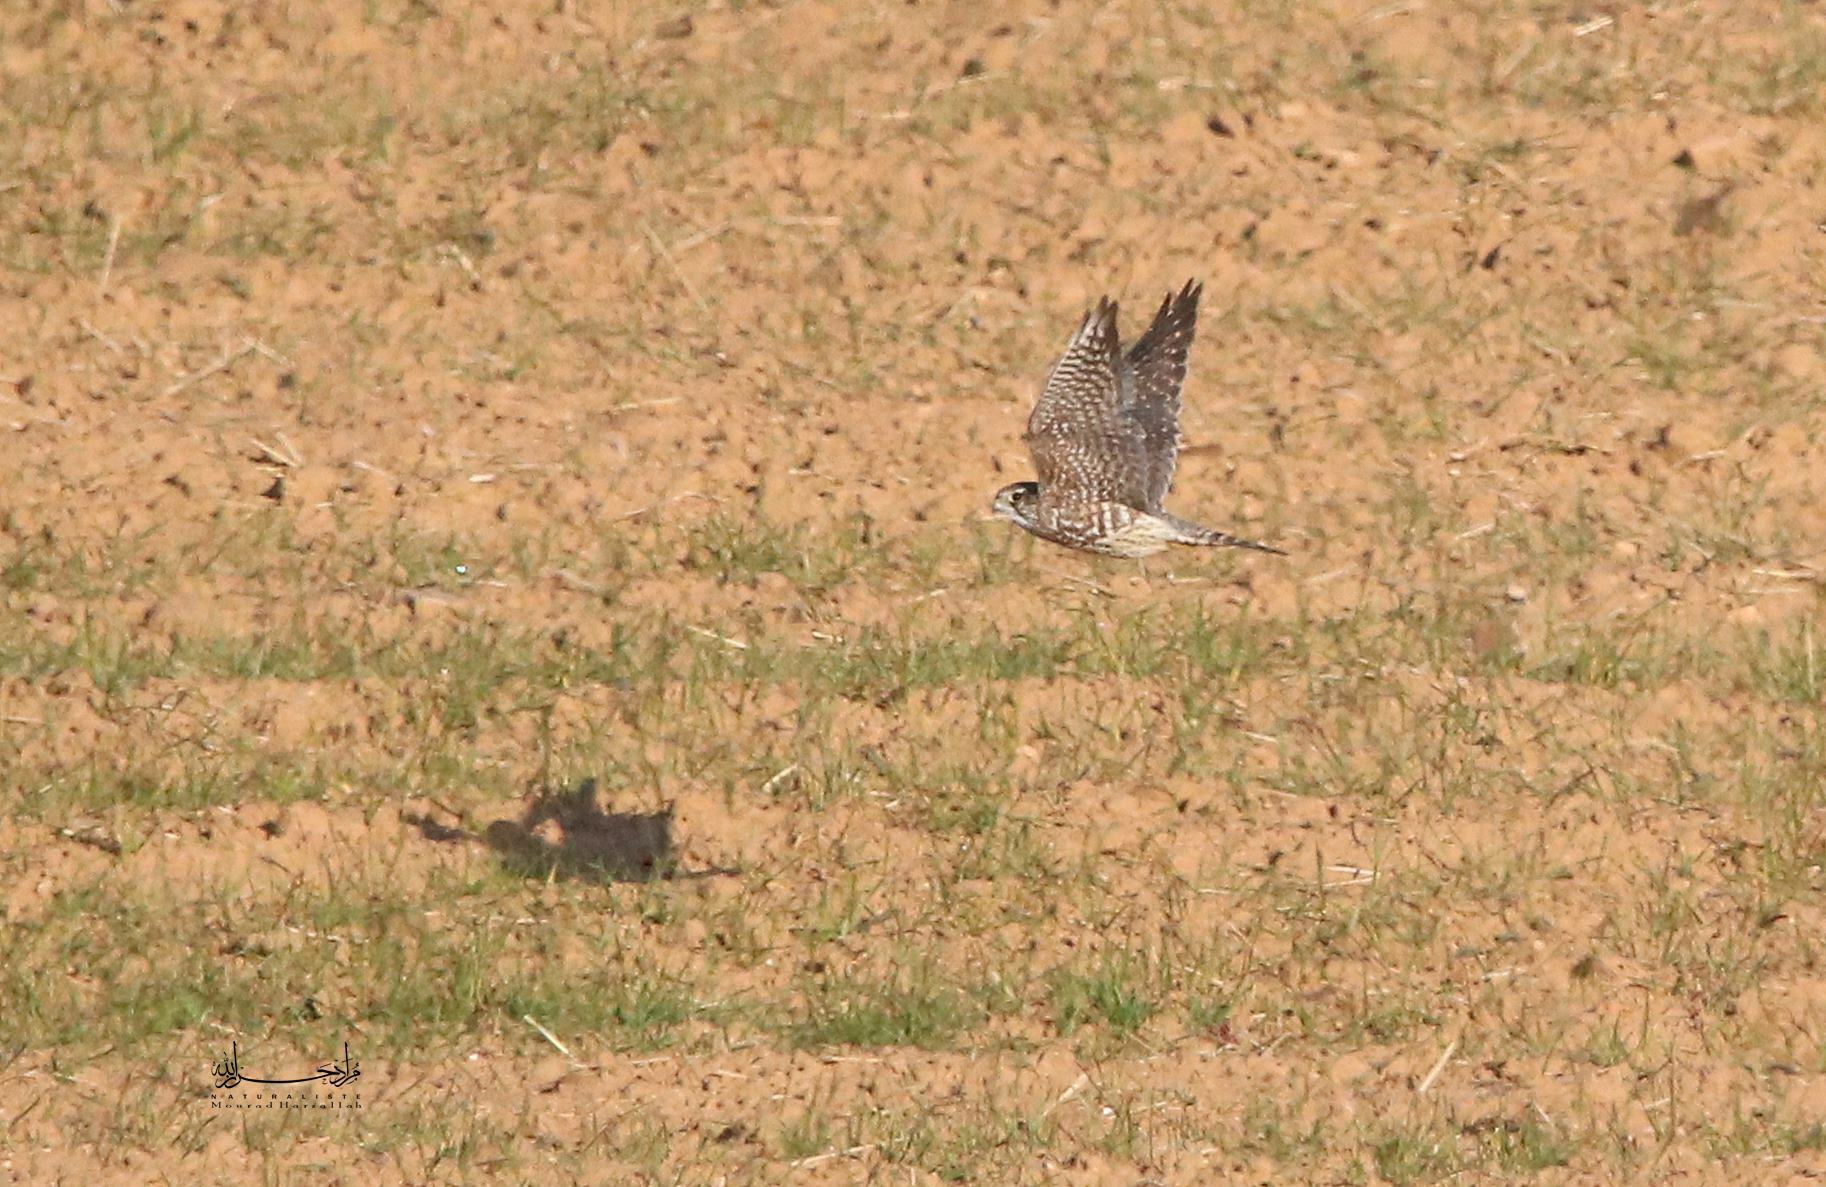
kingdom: Animalia
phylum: Chordata
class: Aves
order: Falconiformes
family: Falconidae
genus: Falco
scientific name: Falco columbarius
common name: Merlin
